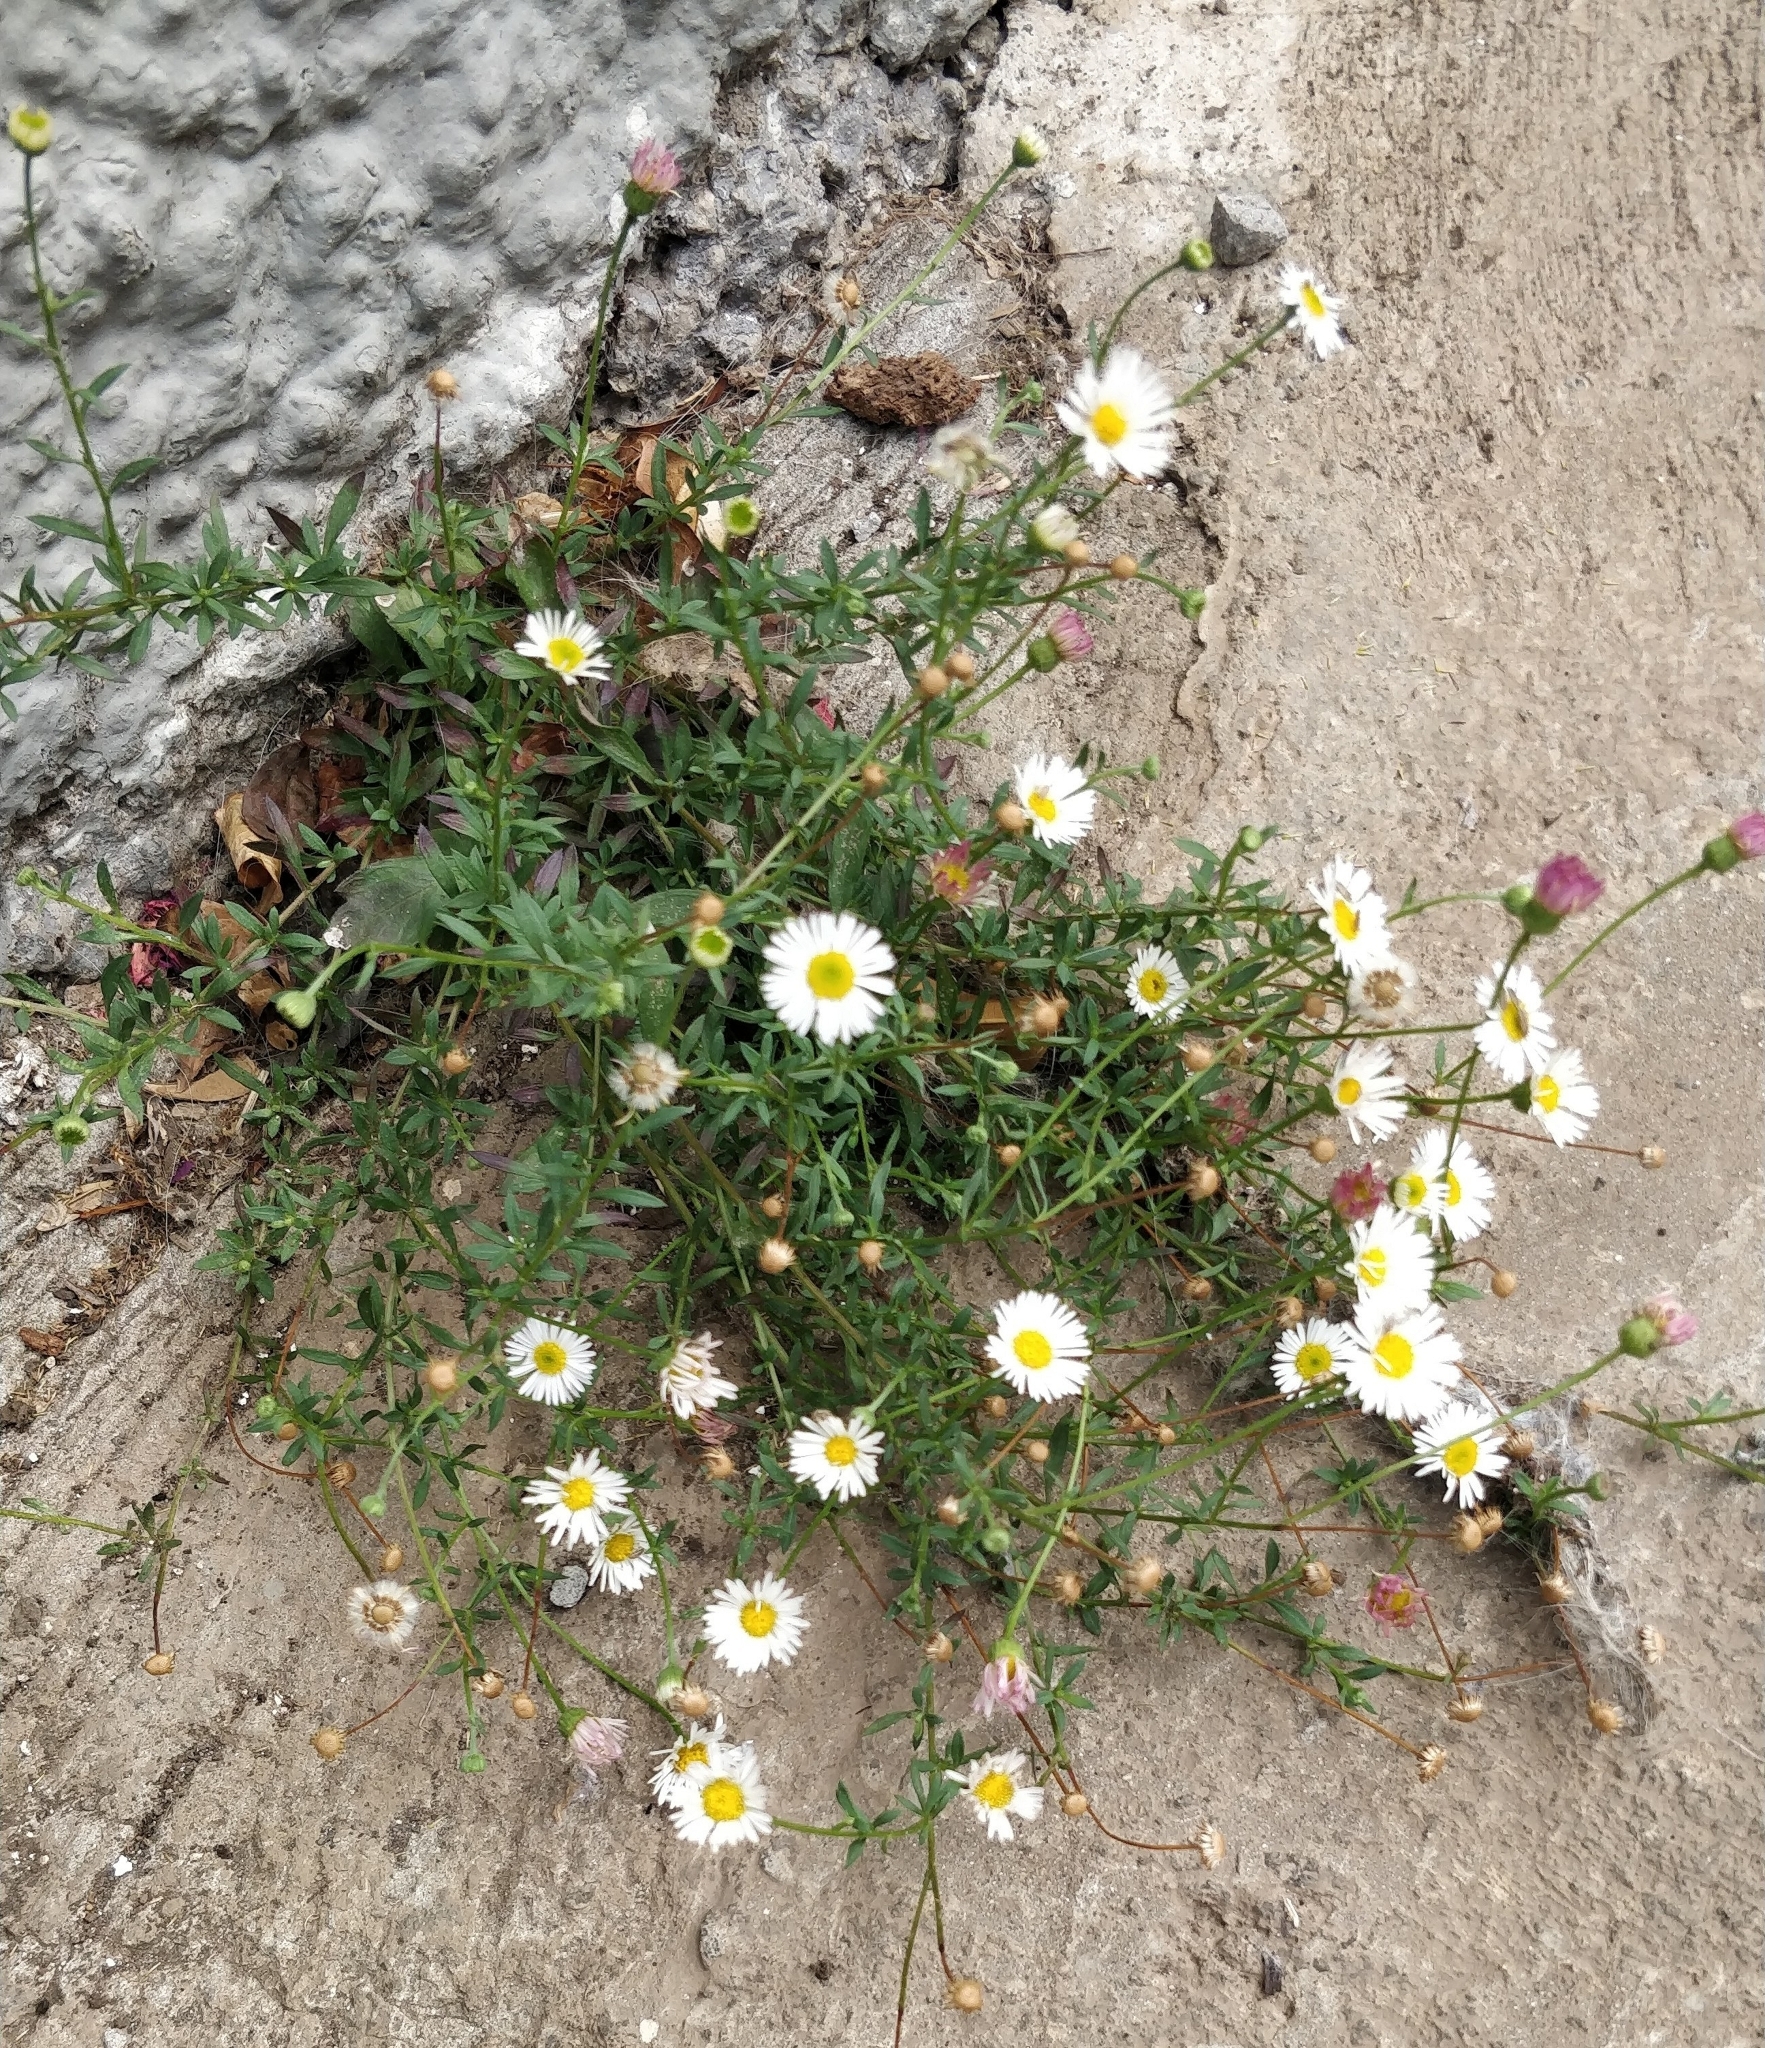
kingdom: Plantae
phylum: Tracheophyta
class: Magnoliopsida
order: Asterales
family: Asteraceae
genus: Erigeron
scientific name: Erigeron karvinskianus
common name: Mexican fleabane
